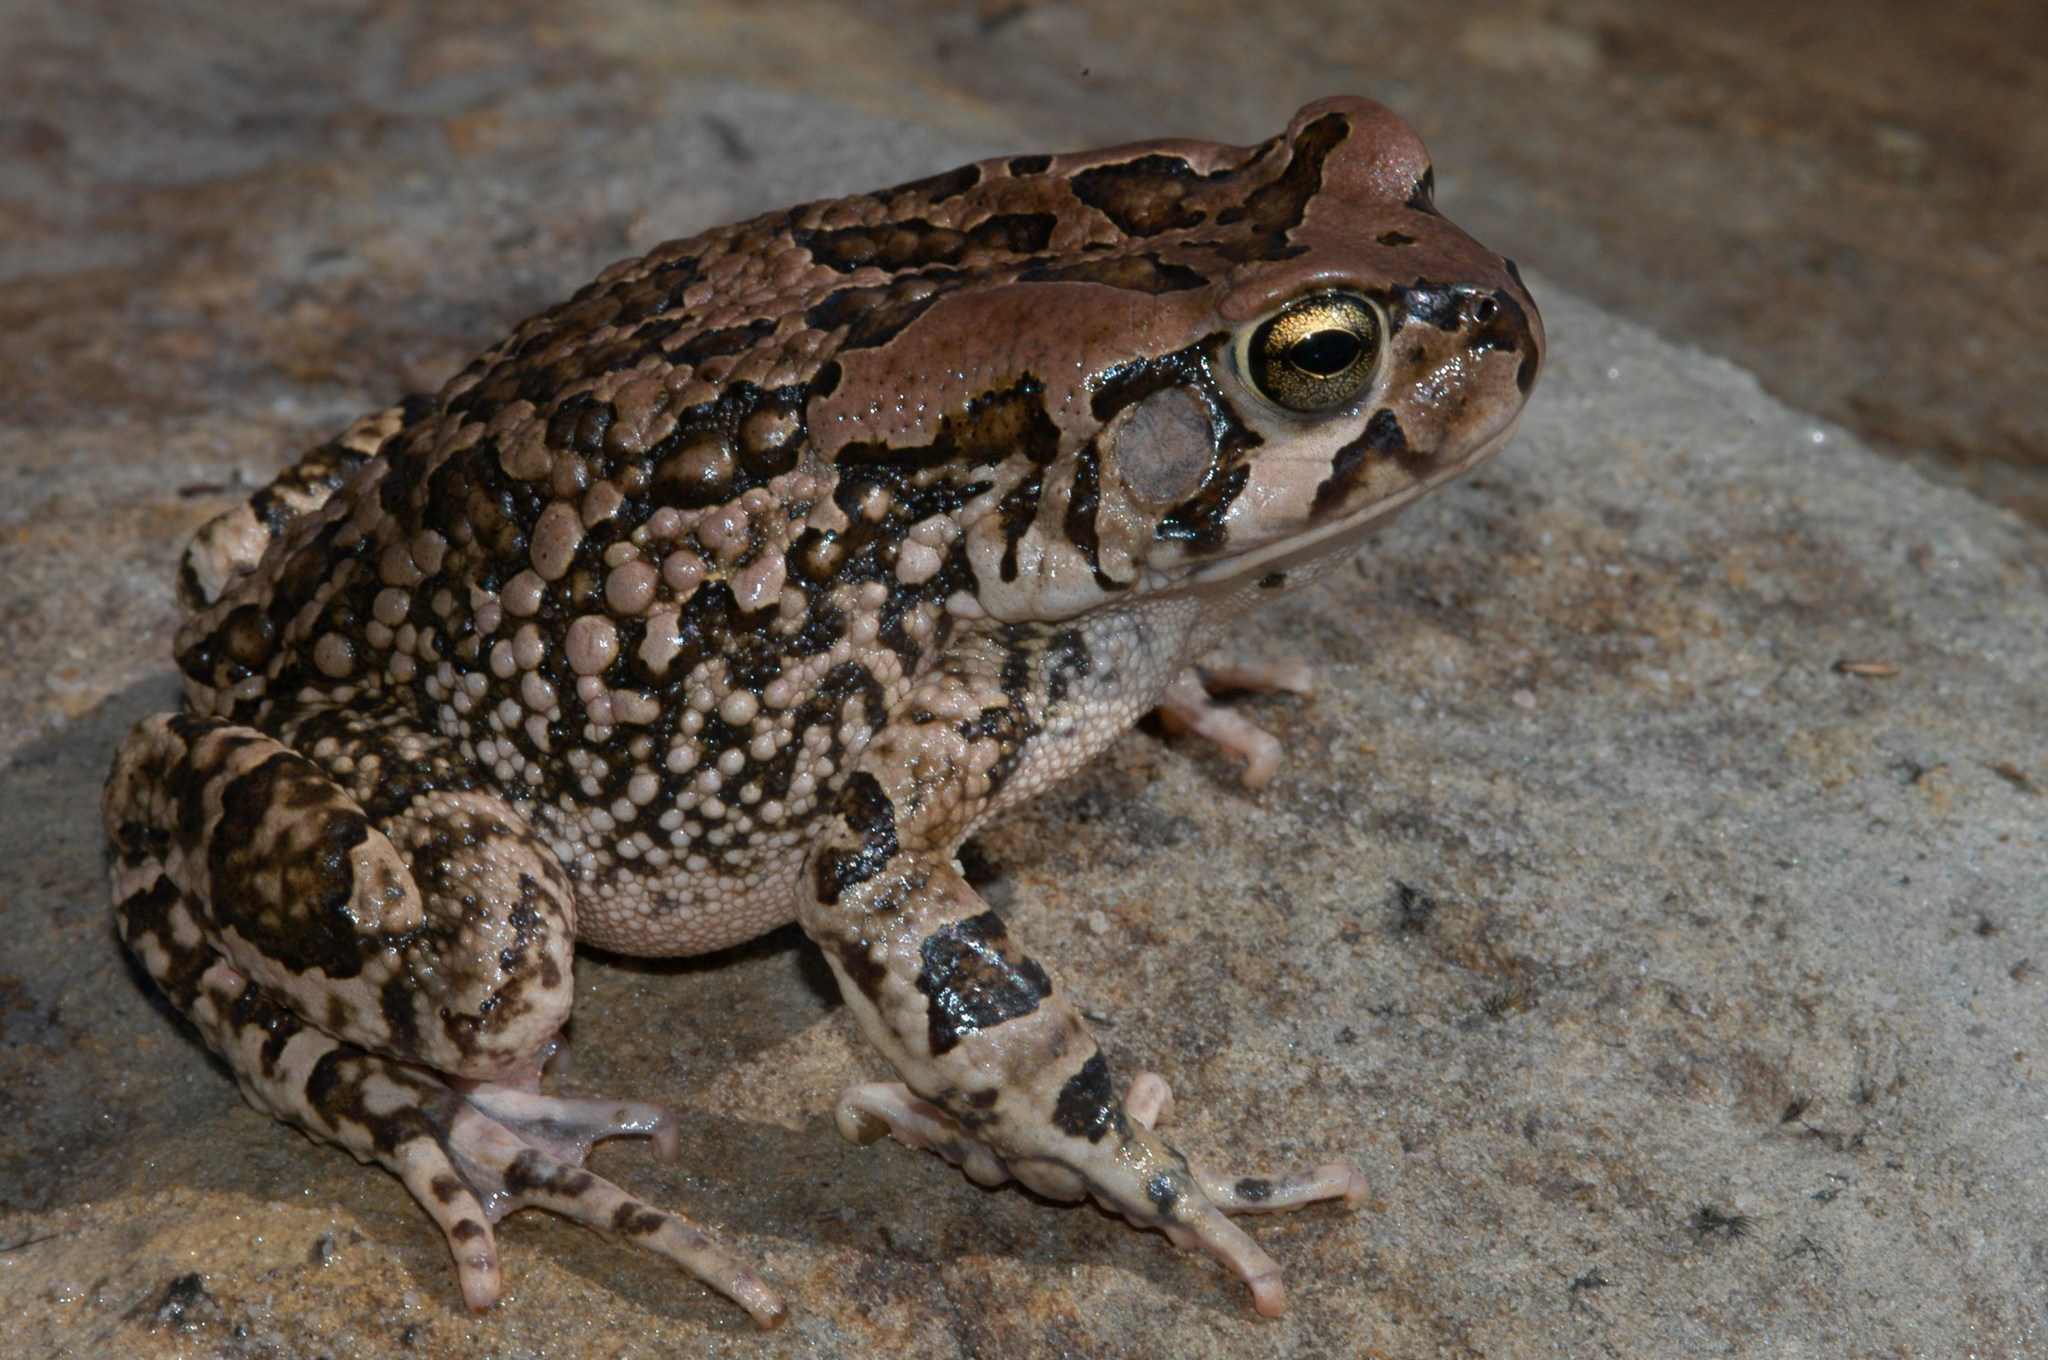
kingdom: Animalia
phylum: Chordata
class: Amphibia
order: Anura
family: Bufonidae
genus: Sclerophrys
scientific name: Sclerophrys capensis
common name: Ranger’s toad
